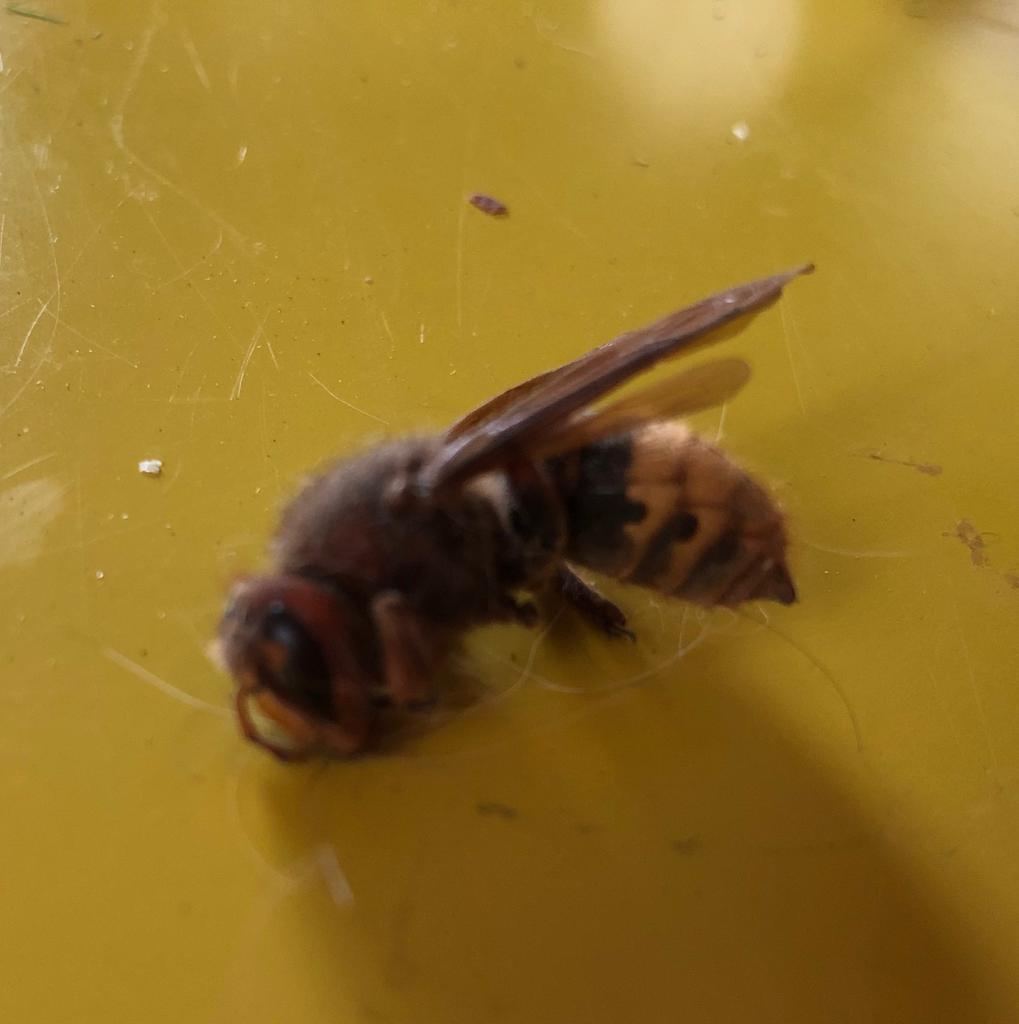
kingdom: Animalia
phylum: Arthropoda
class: Insecta
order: Hymenoptera
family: Vespidae
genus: Vespa
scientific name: Vespa crabro
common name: Hornet
